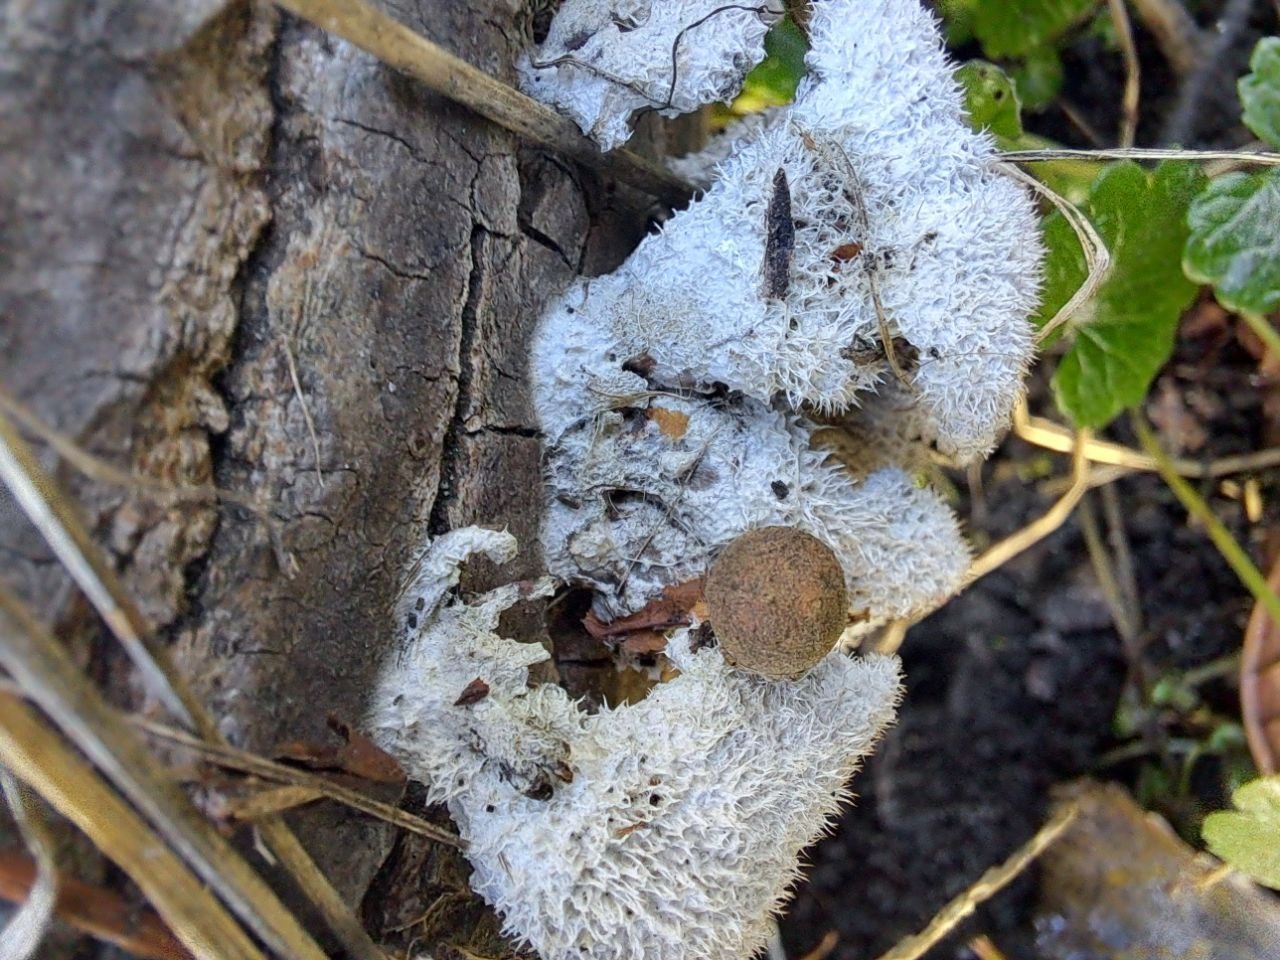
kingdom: Fungi
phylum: Basidiomycota
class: Agaricomycetes
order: Agaricales
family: Schizophyllaceae
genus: Schizophyllum
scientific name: Schizophyllum commune
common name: Common porecrust
